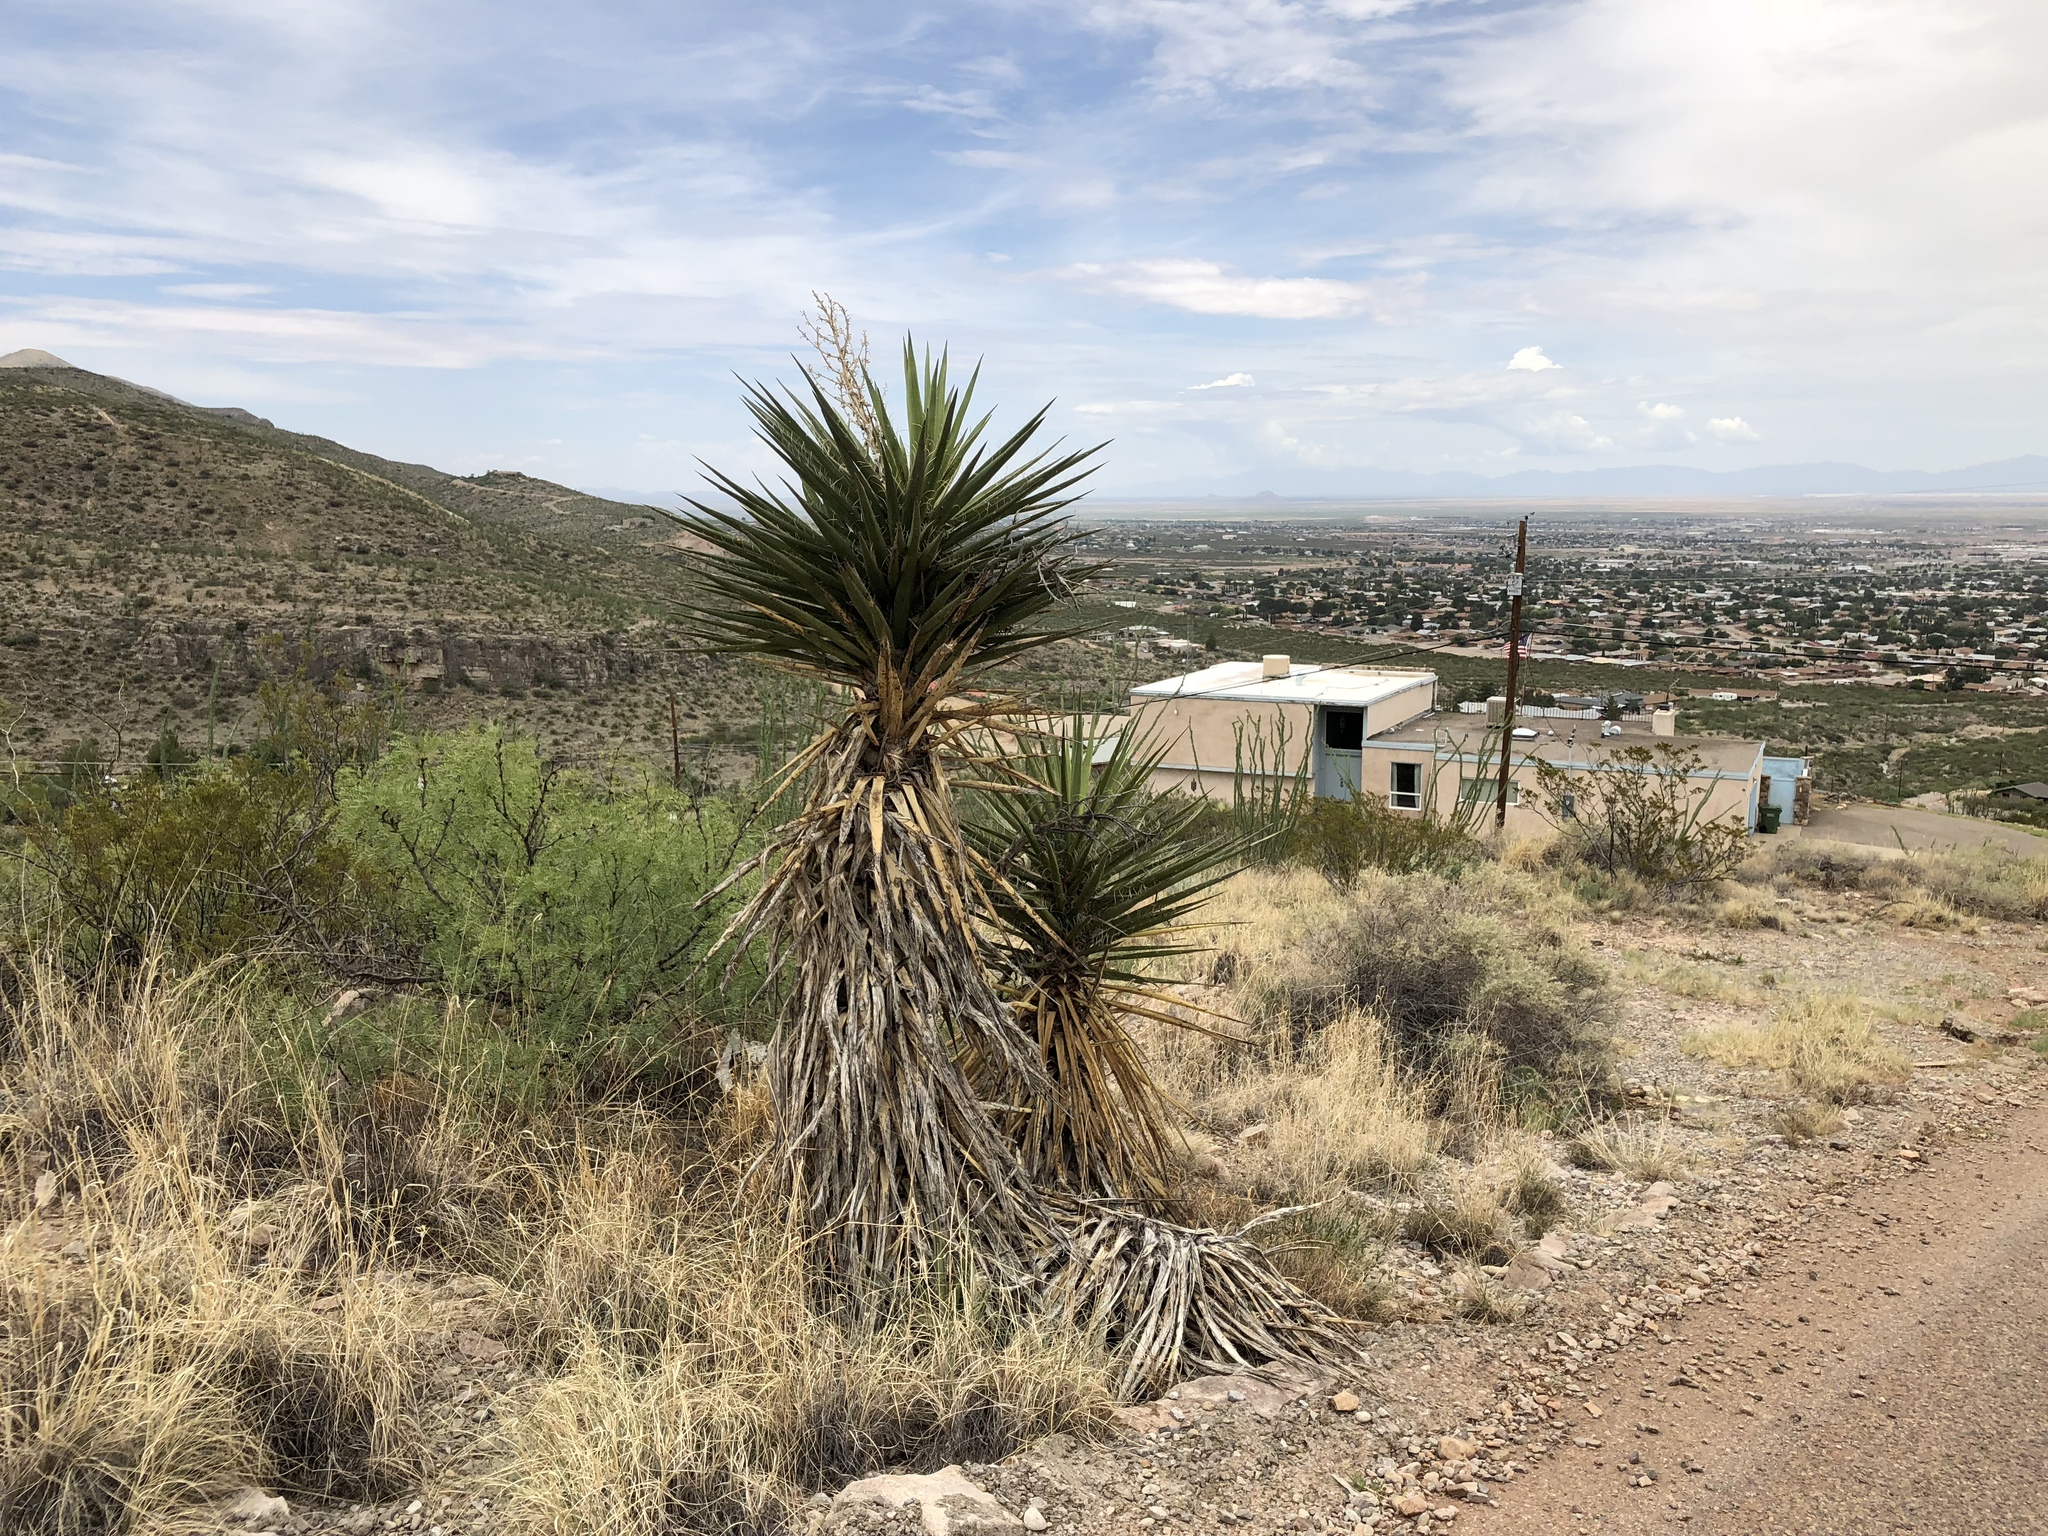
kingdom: Plantae
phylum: Tracheophyta
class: Liliopsida
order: Asparagales
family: Asparagaceae
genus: Yucca
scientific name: Yucca treculiana
